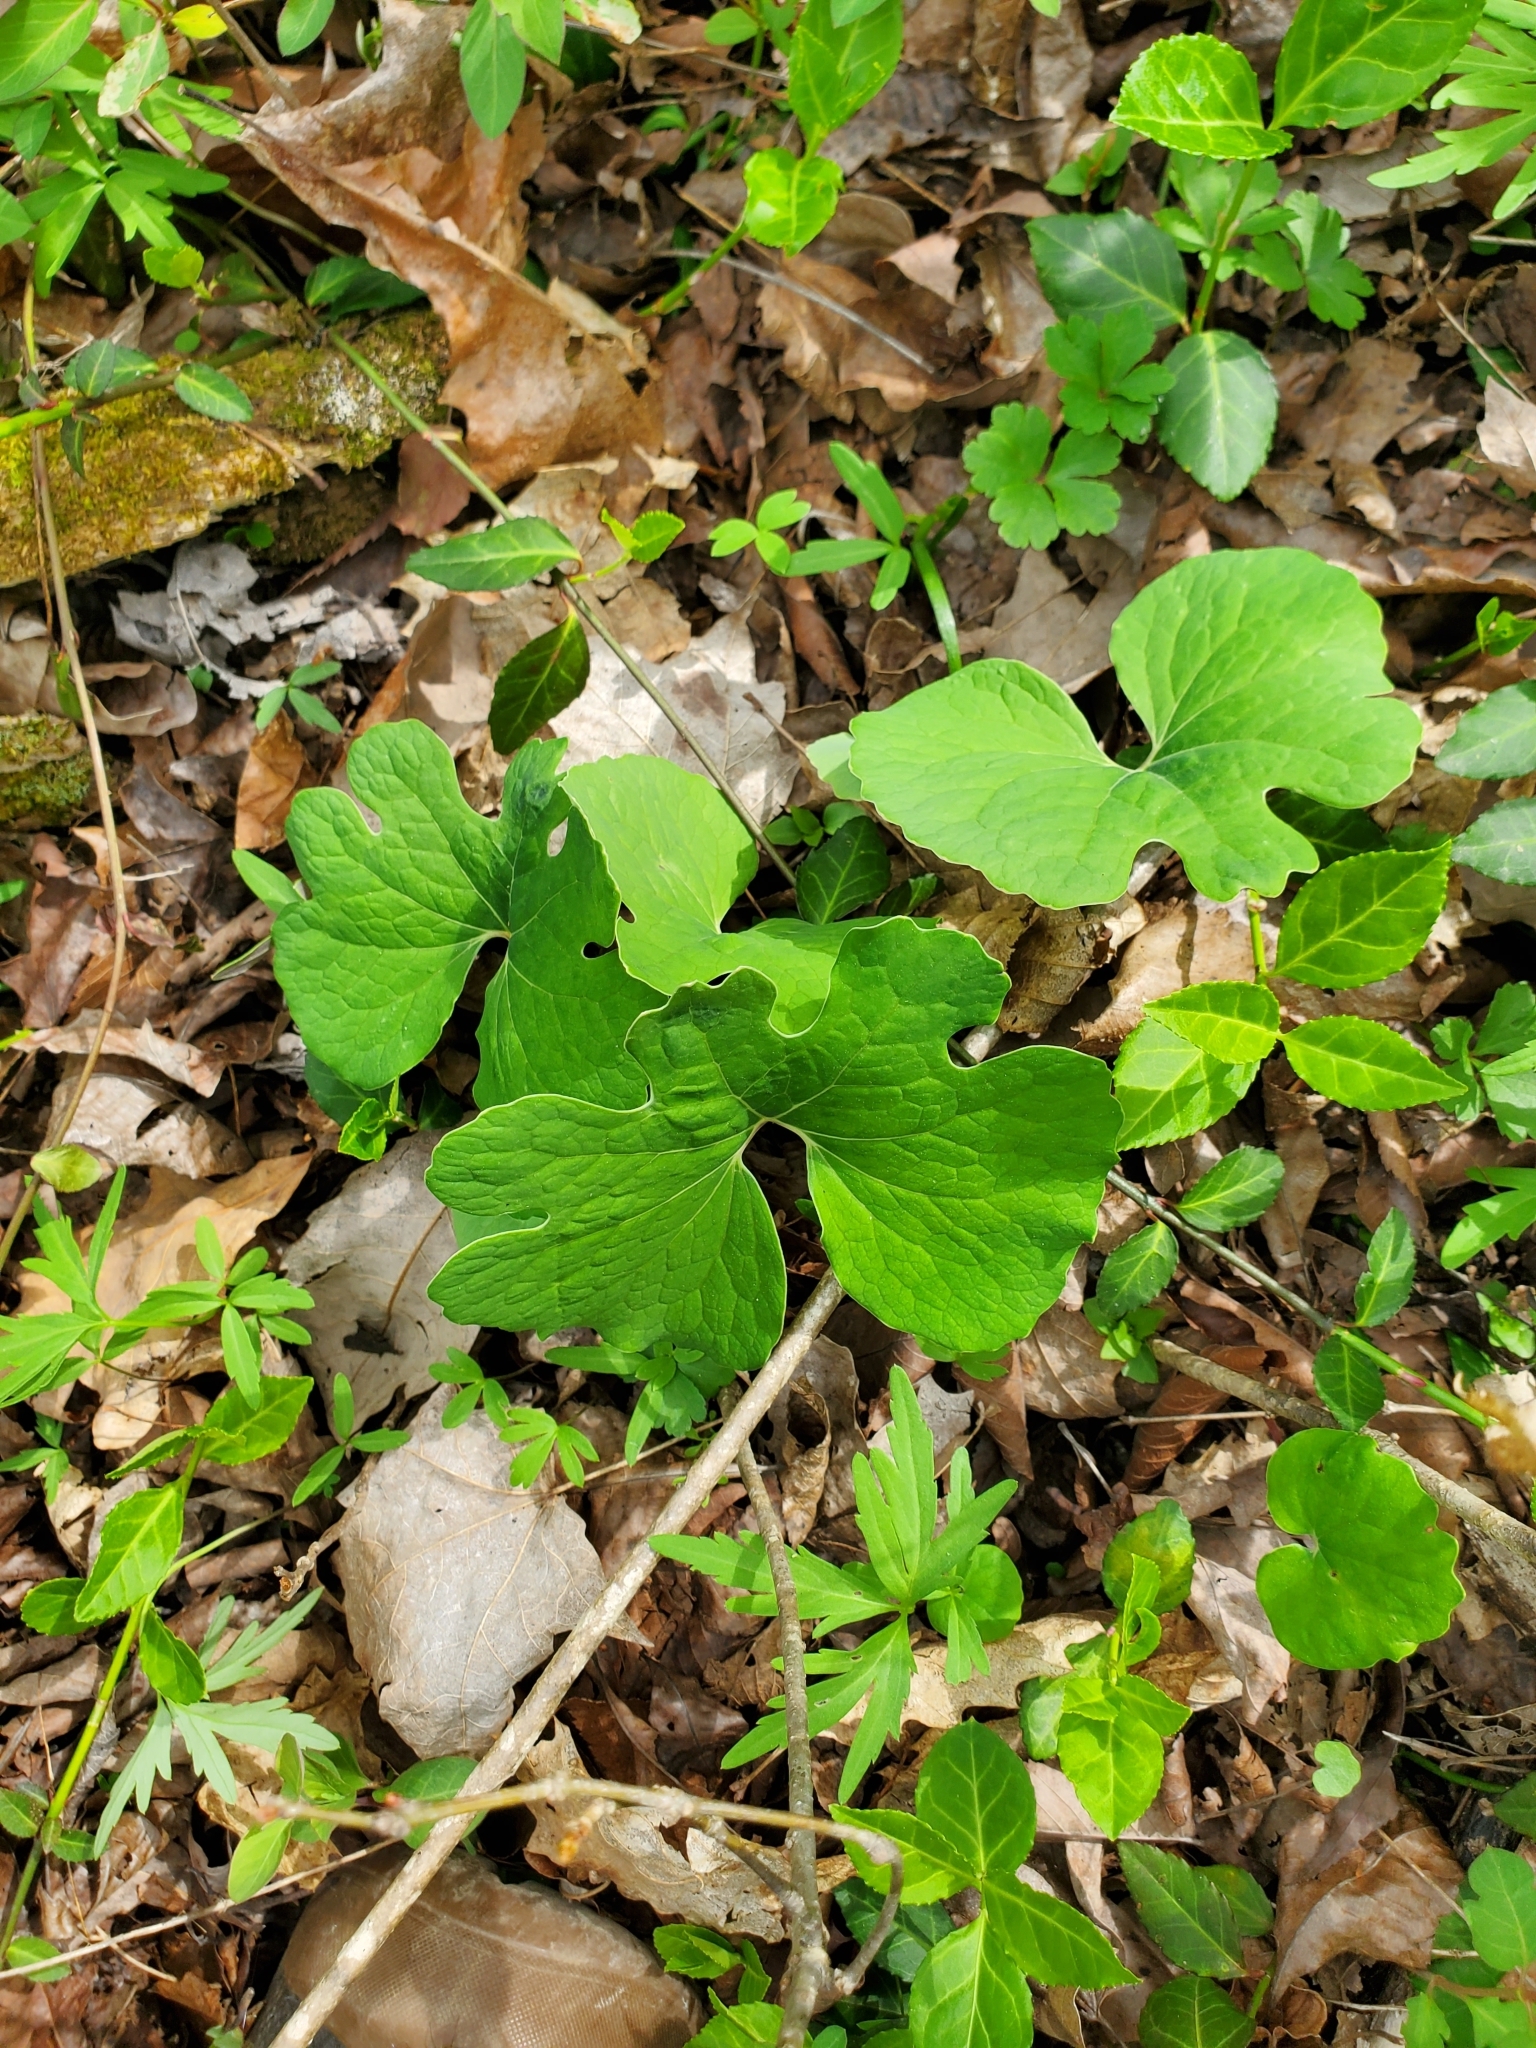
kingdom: Plantae
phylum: Tracheophyta
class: Magnoliopsida
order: Ranunculales
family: Papaveraceae
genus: Sanguinaria
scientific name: Sanguinaria canadensis
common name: Bloodroot
